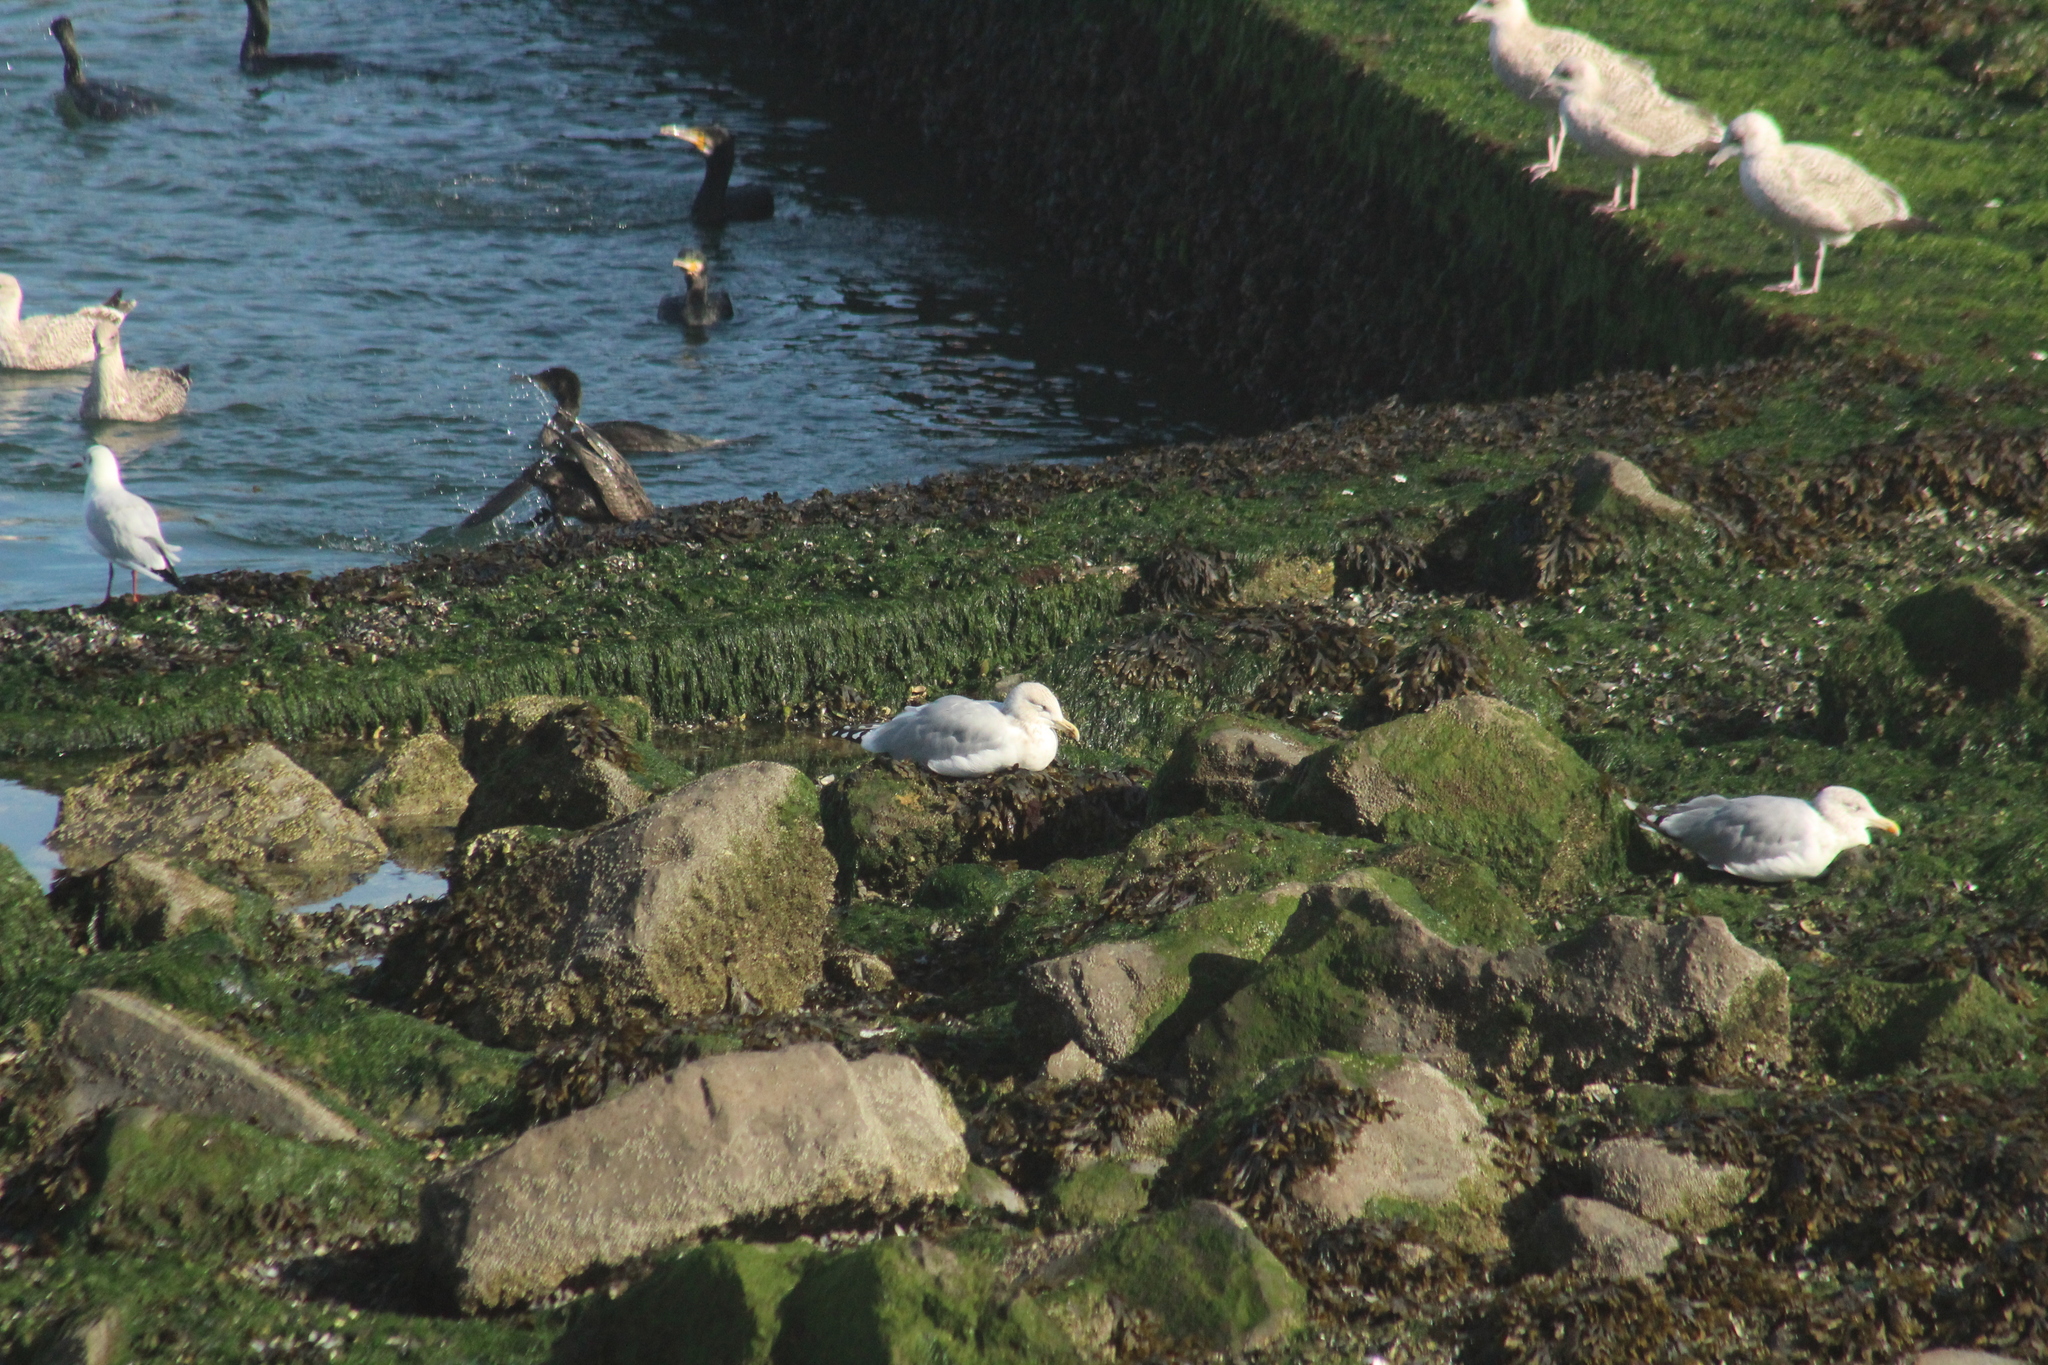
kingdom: Animalia
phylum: Chordata
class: Aves
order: Charadriiformes
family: Laridae
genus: Larus
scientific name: Larus argentatus
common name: Herring gull
